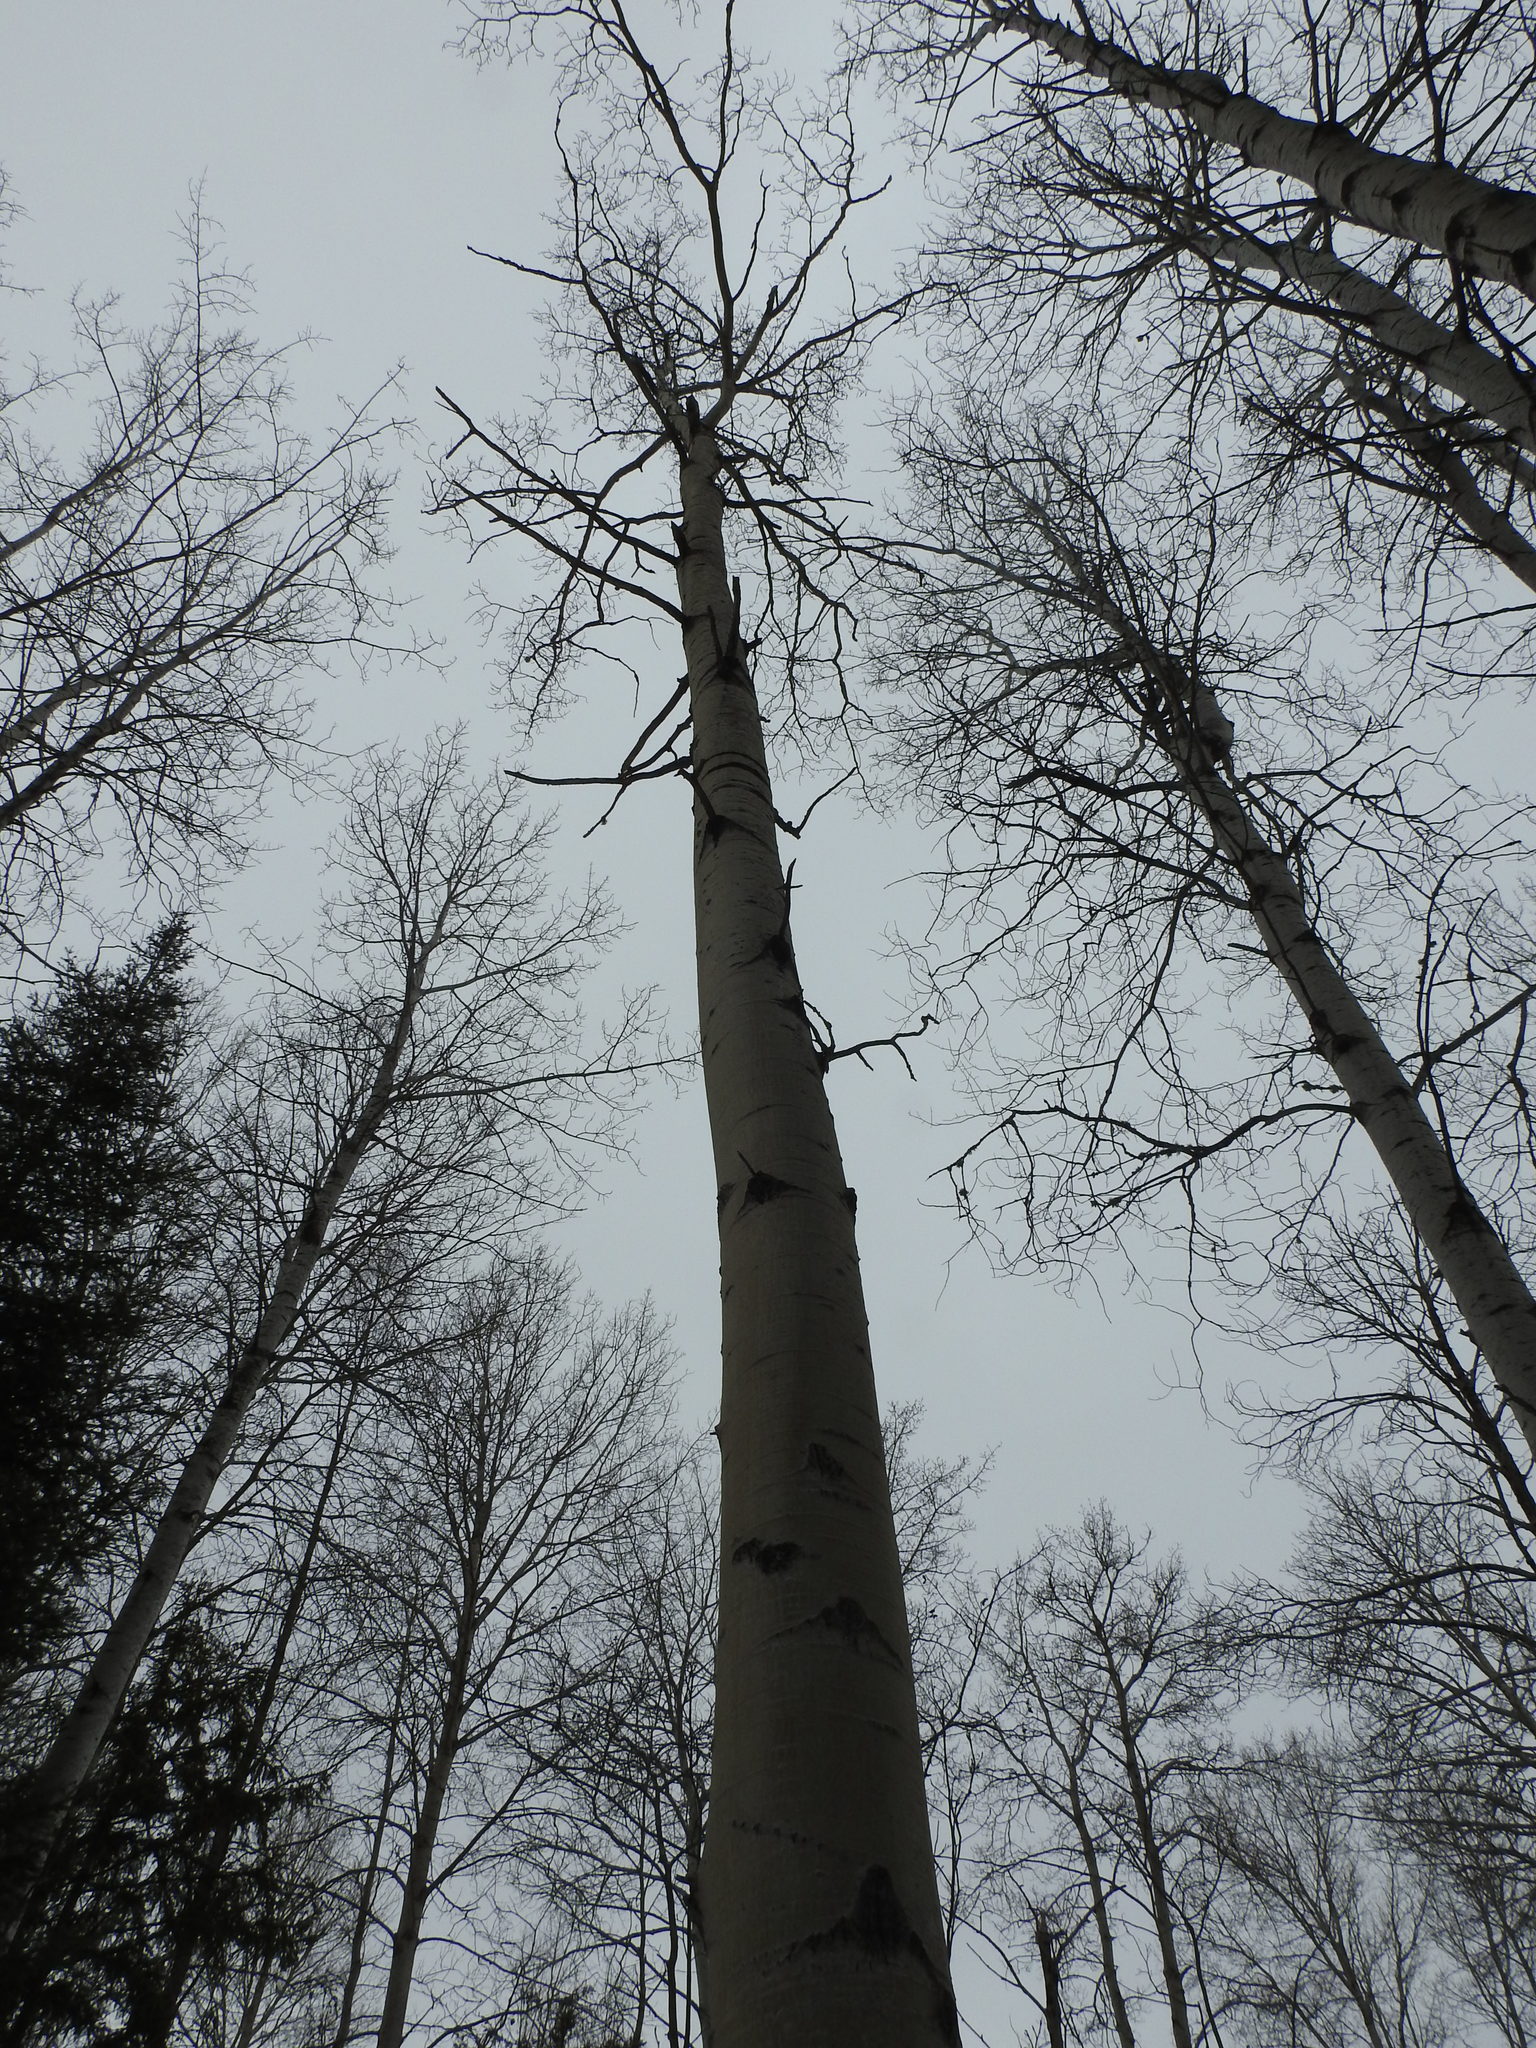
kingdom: Plantae
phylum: Tracheophyta
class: Magnoliopsida
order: Malpighiales
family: Salicaceae
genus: Populus
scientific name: Populus tremuloides
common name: Quaking aspen
